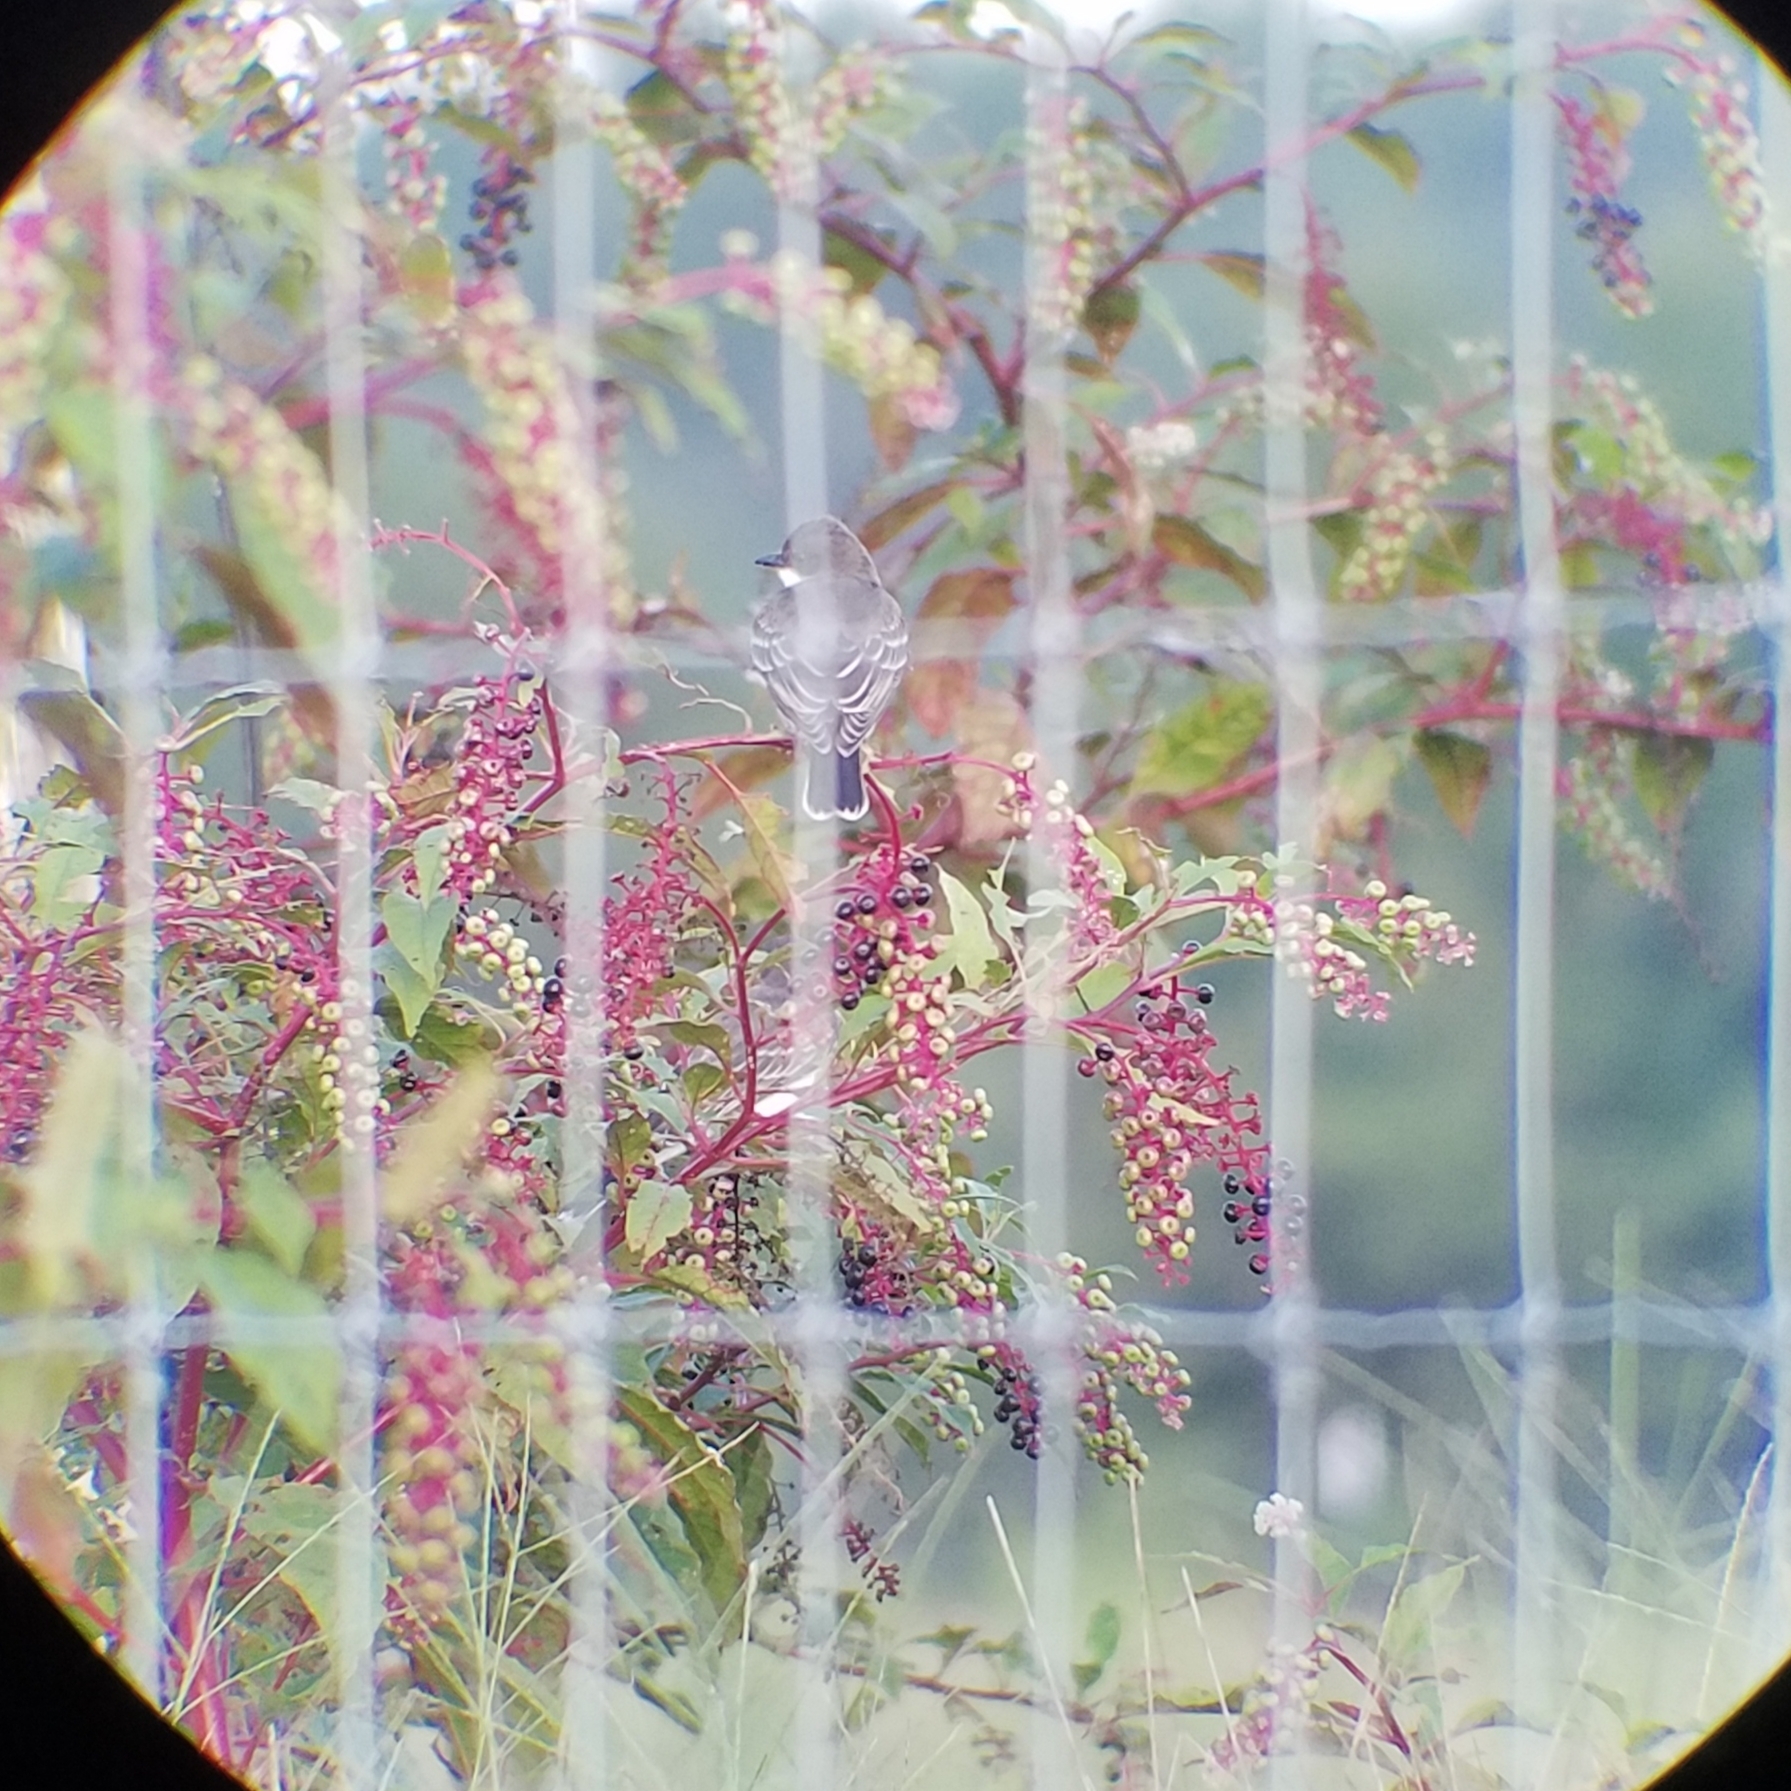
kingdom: Animalia
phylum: Chordata
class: Aves
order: Passeriformes
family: Tyrannidae
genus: Tyrannus
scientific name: Tyrannus tyrannus
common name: Eastern kingbird
